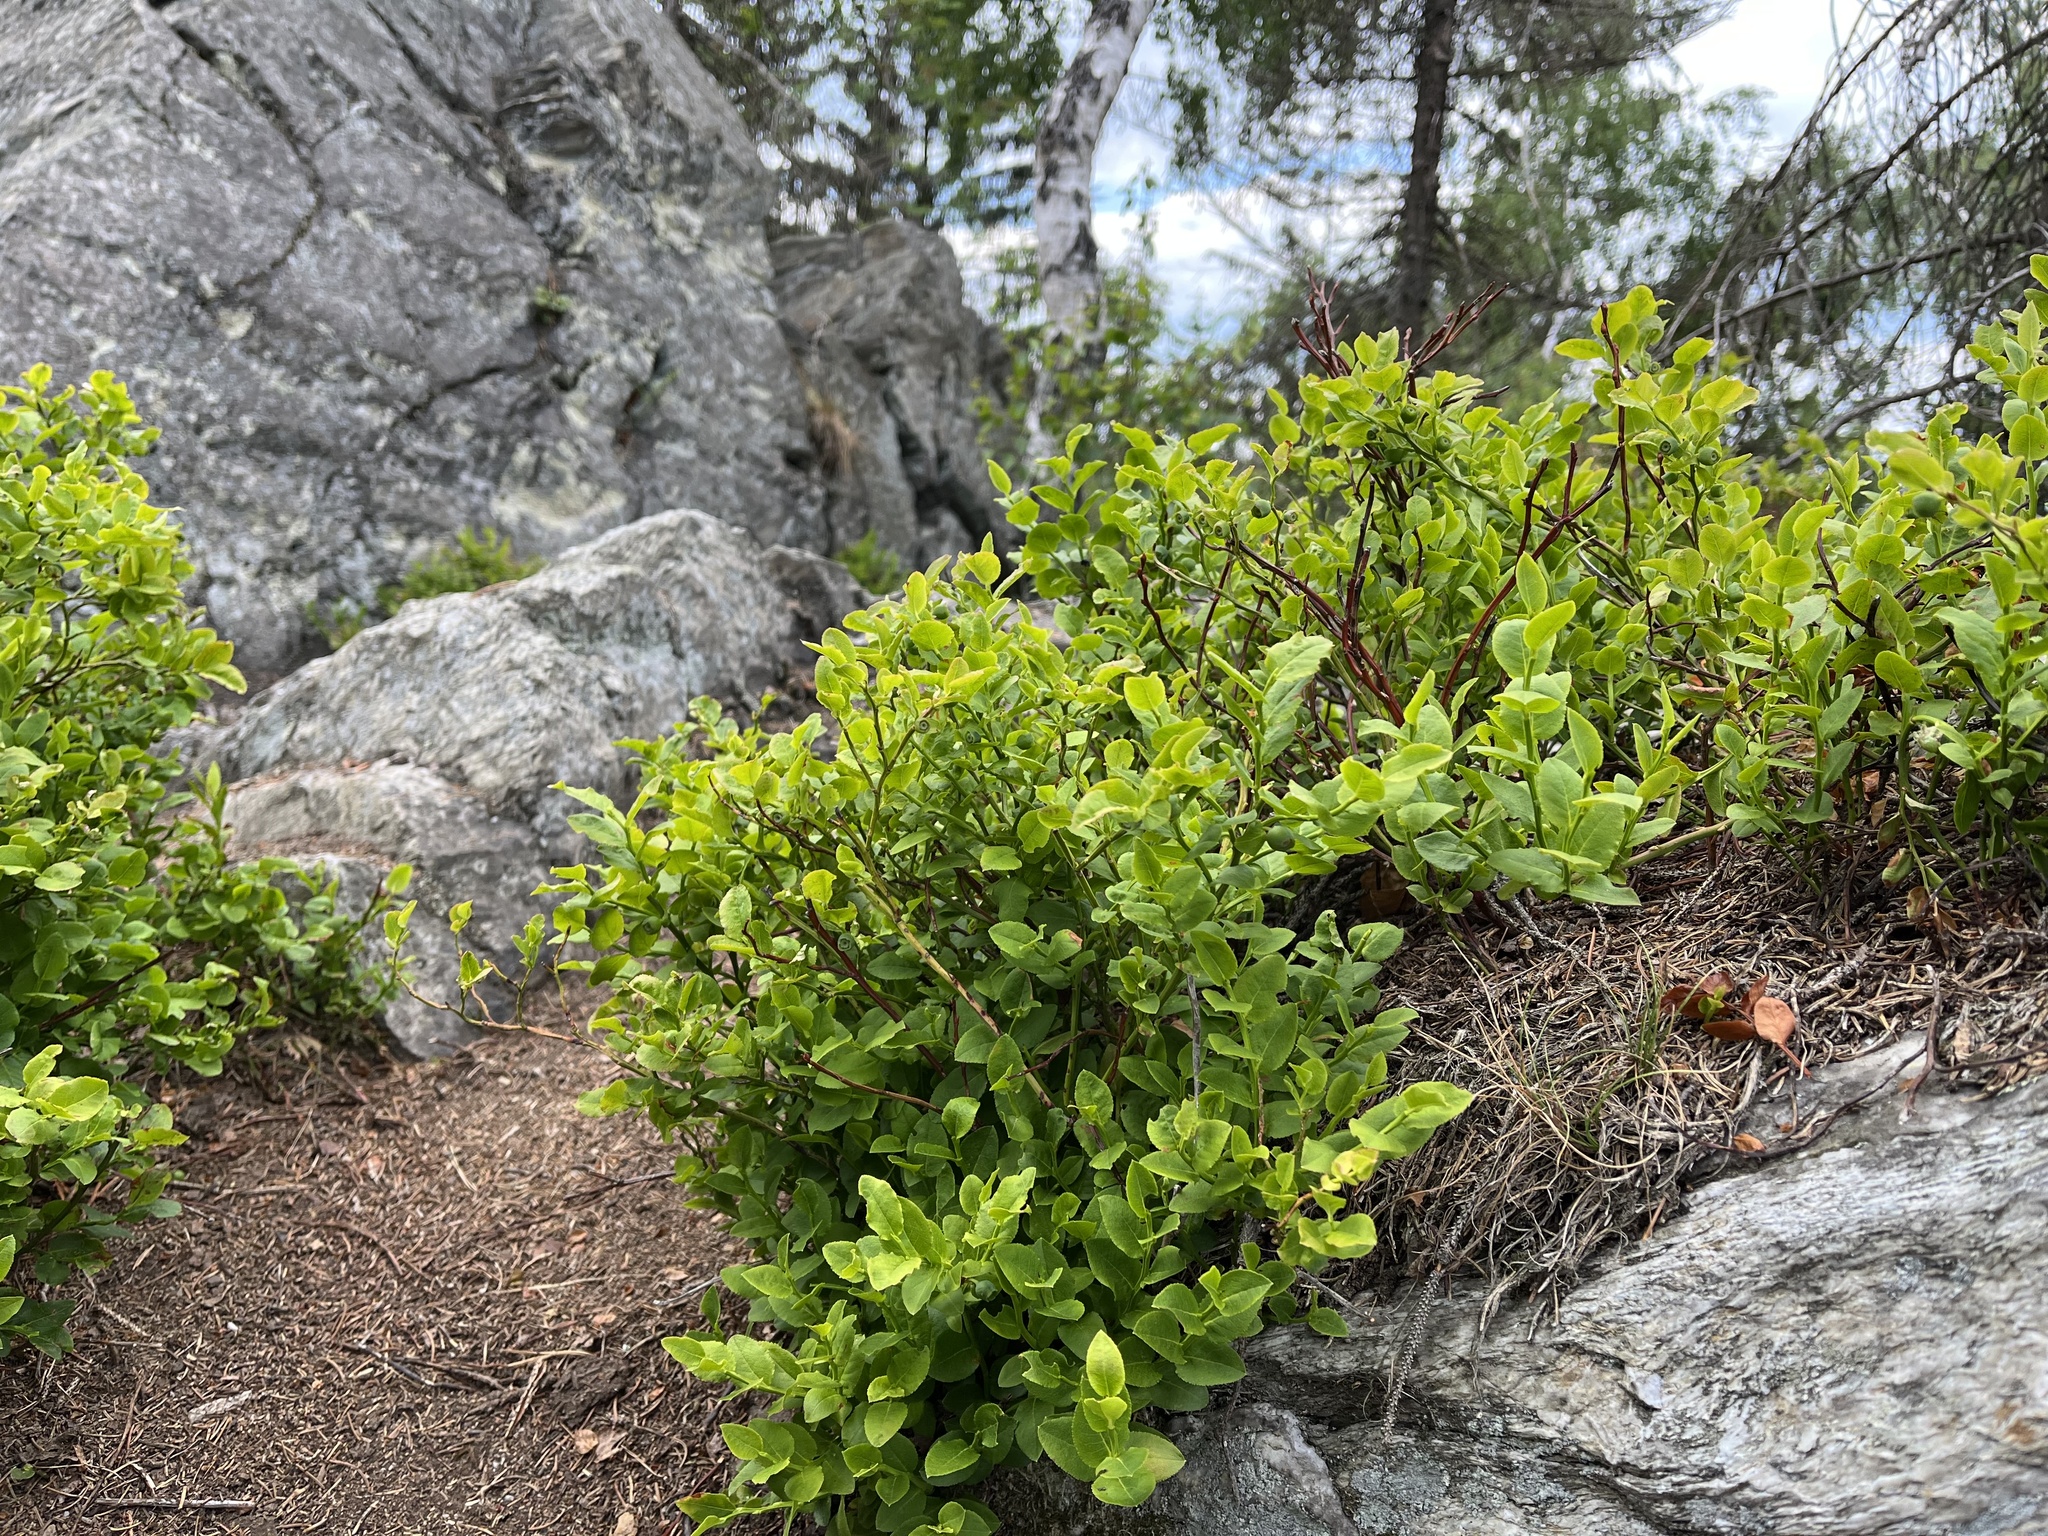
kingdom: Plantae
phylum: Tracheophyta
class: Magnoliopsida
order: Ericales
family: Ericaceae
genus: Vaccinium
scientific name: Vaccinium myrtillus
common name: Bilberry
